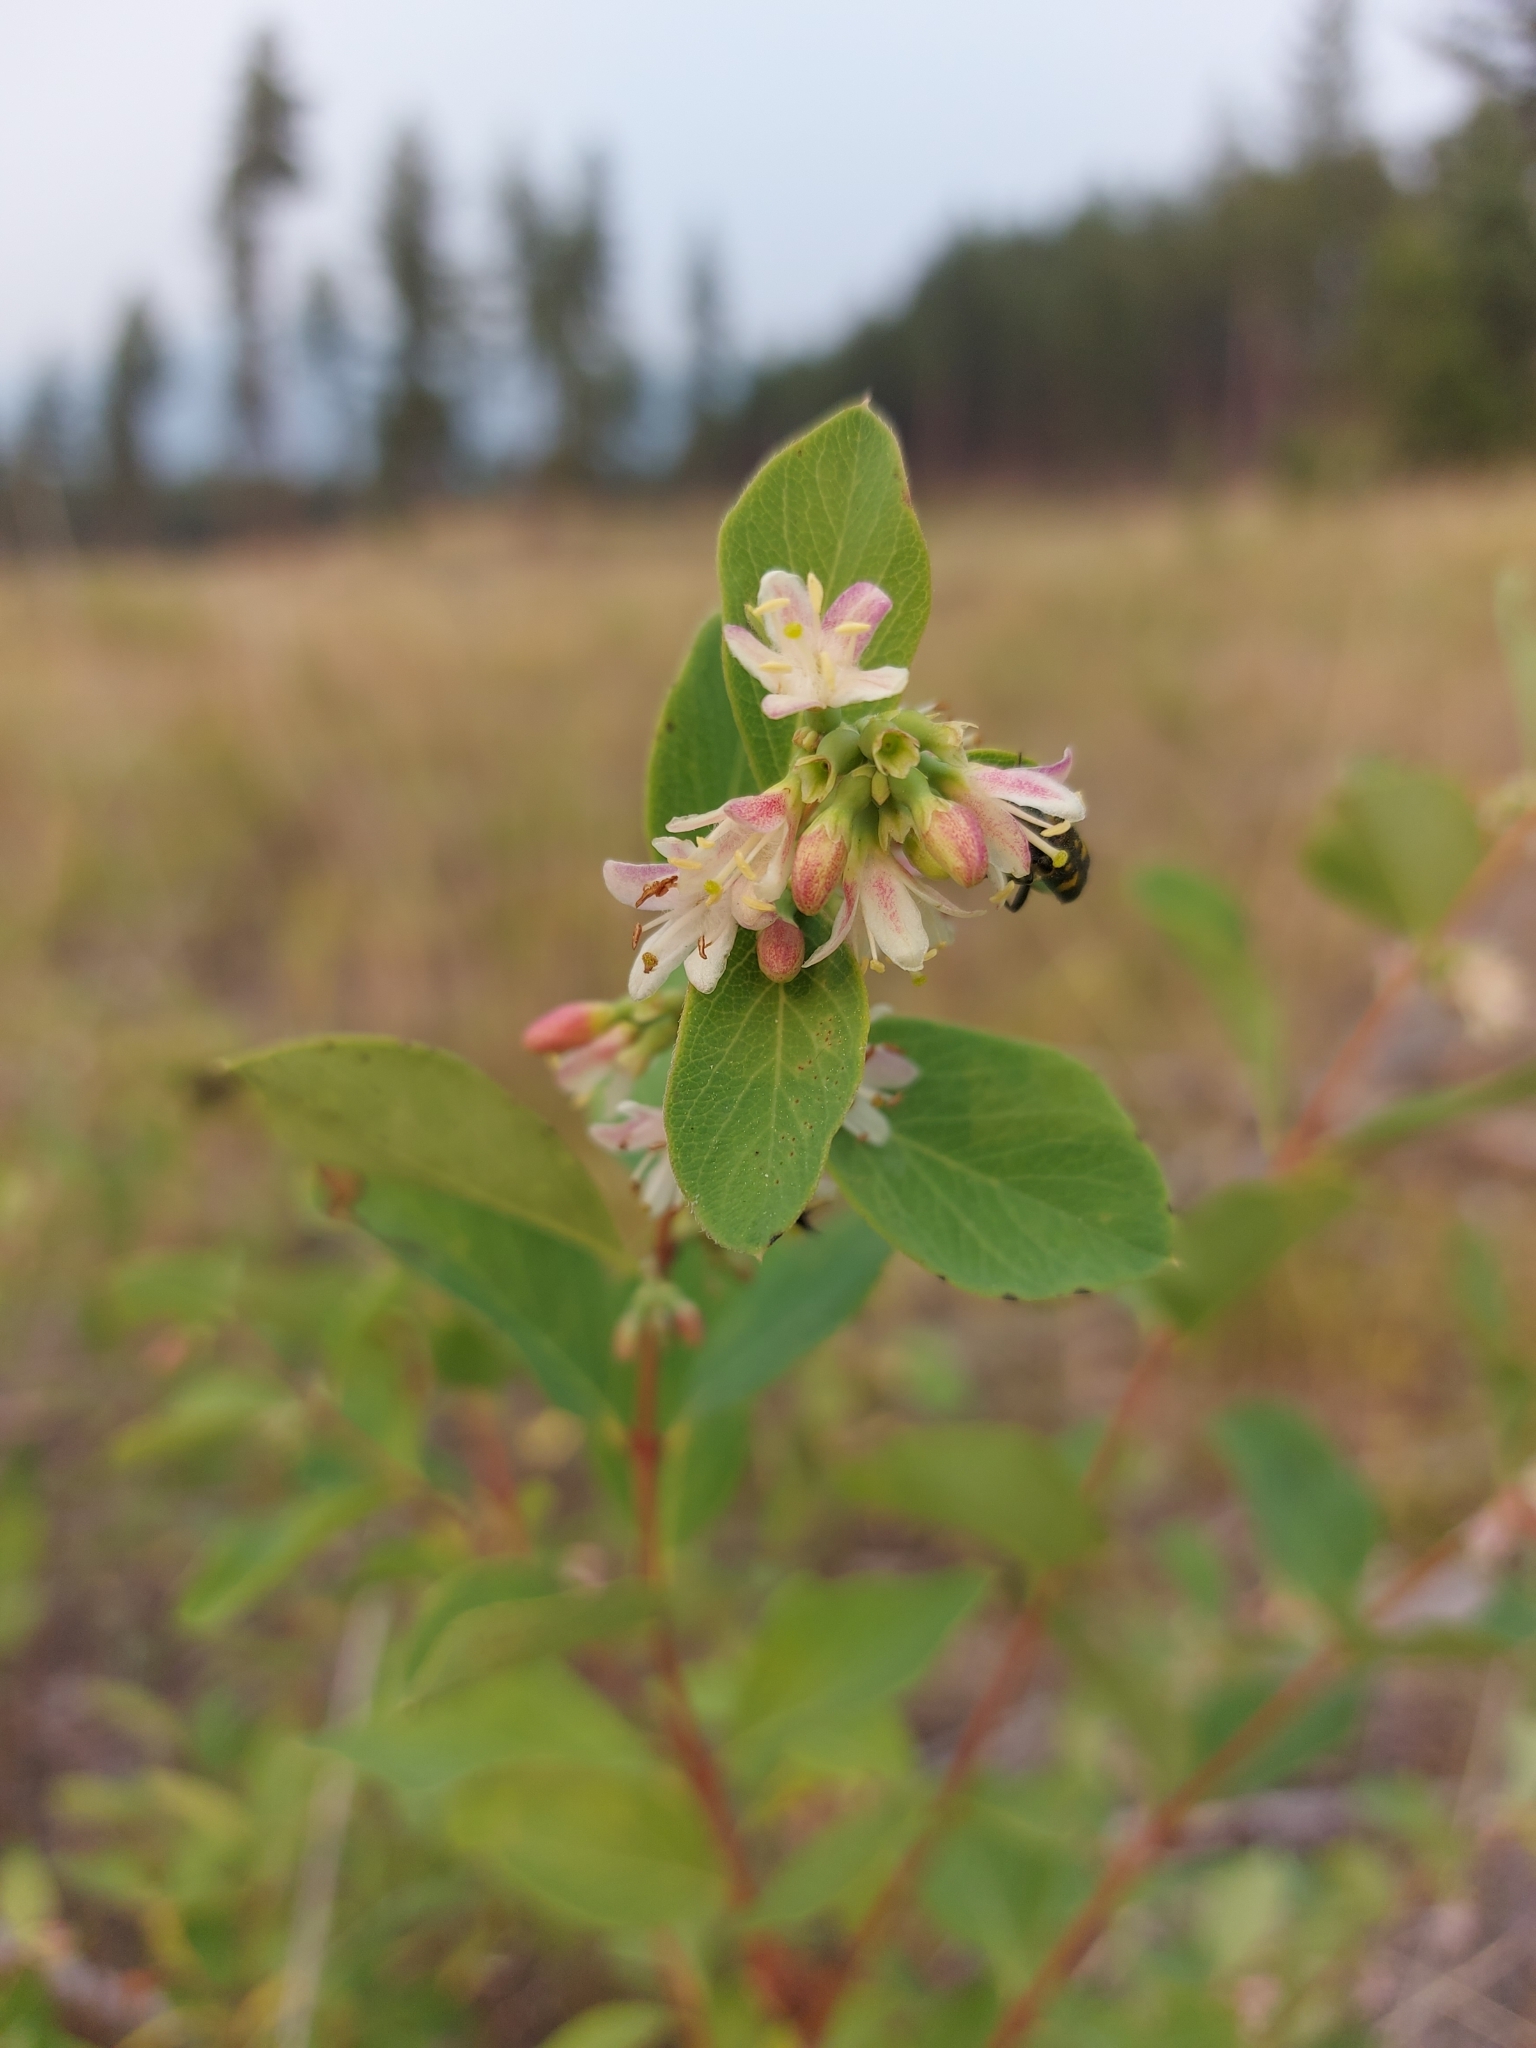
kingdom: Plantae
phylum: Tracheophyta
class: Magnoliopsida
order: Dipsacales
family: Caprifoliaceae
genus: Symphoricarpos
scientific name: Symphoricarpos occidentalis
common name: Wolfberry
